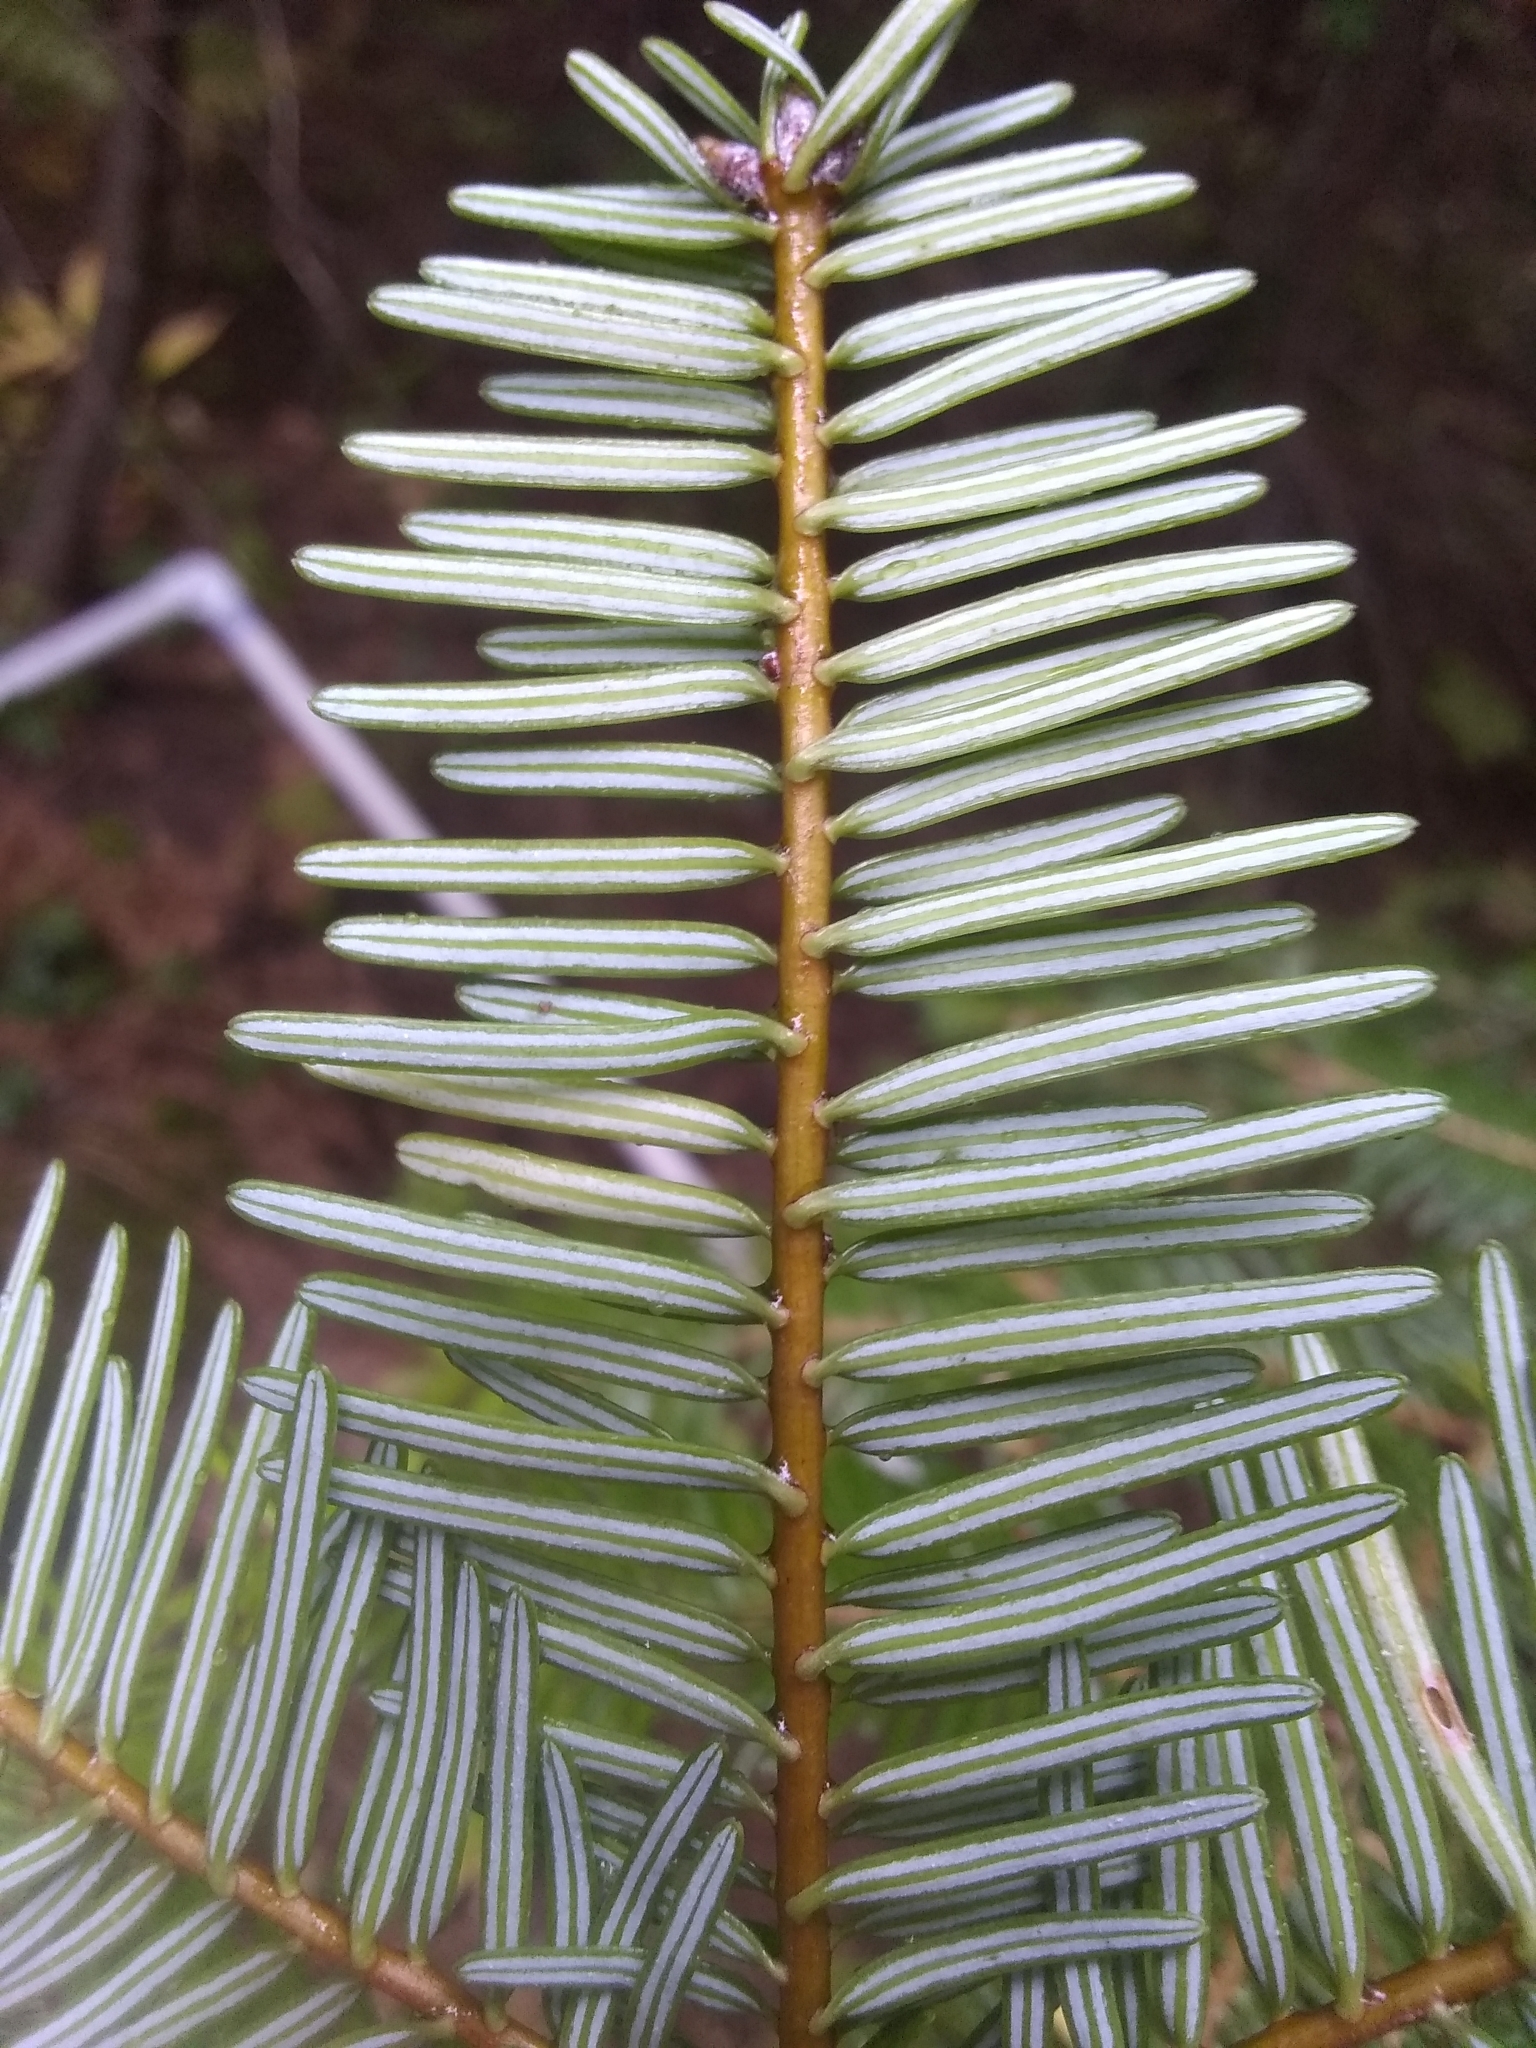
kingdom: Plantae
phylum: Tracheophyta
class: Pinopsida
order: Pinales
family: Pinaceae
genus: Abies
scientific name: Abies grandis
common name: Giant fir
